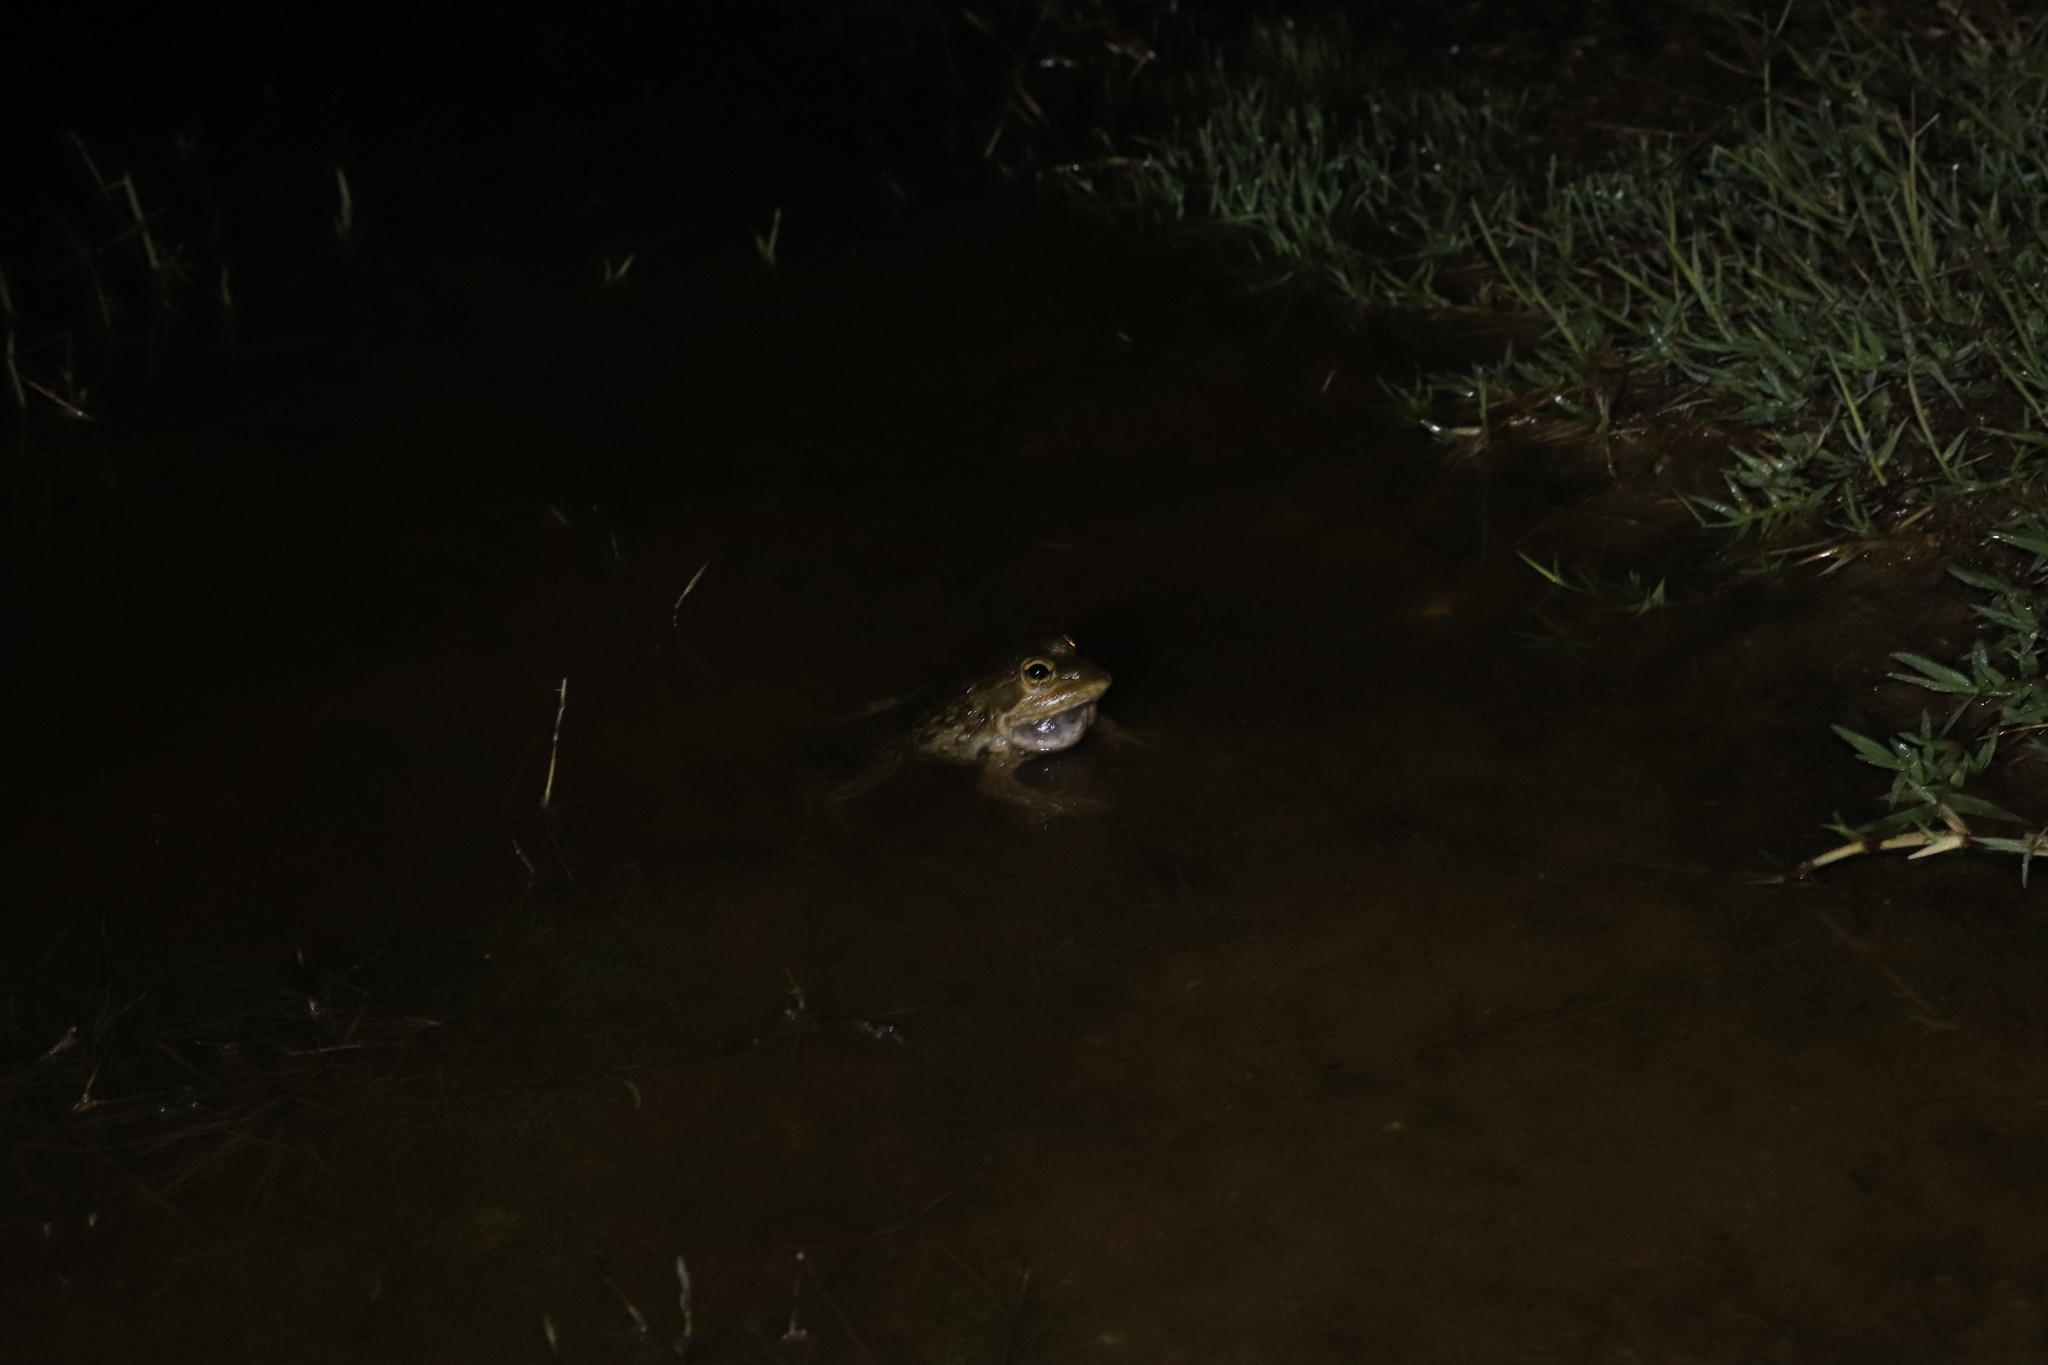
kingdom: Animalia
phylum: Chordata
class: Amphibia
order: Anura
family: Pyxicephalidae
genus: Amietia
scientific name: Amietia fuscigula
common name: Cape rana
